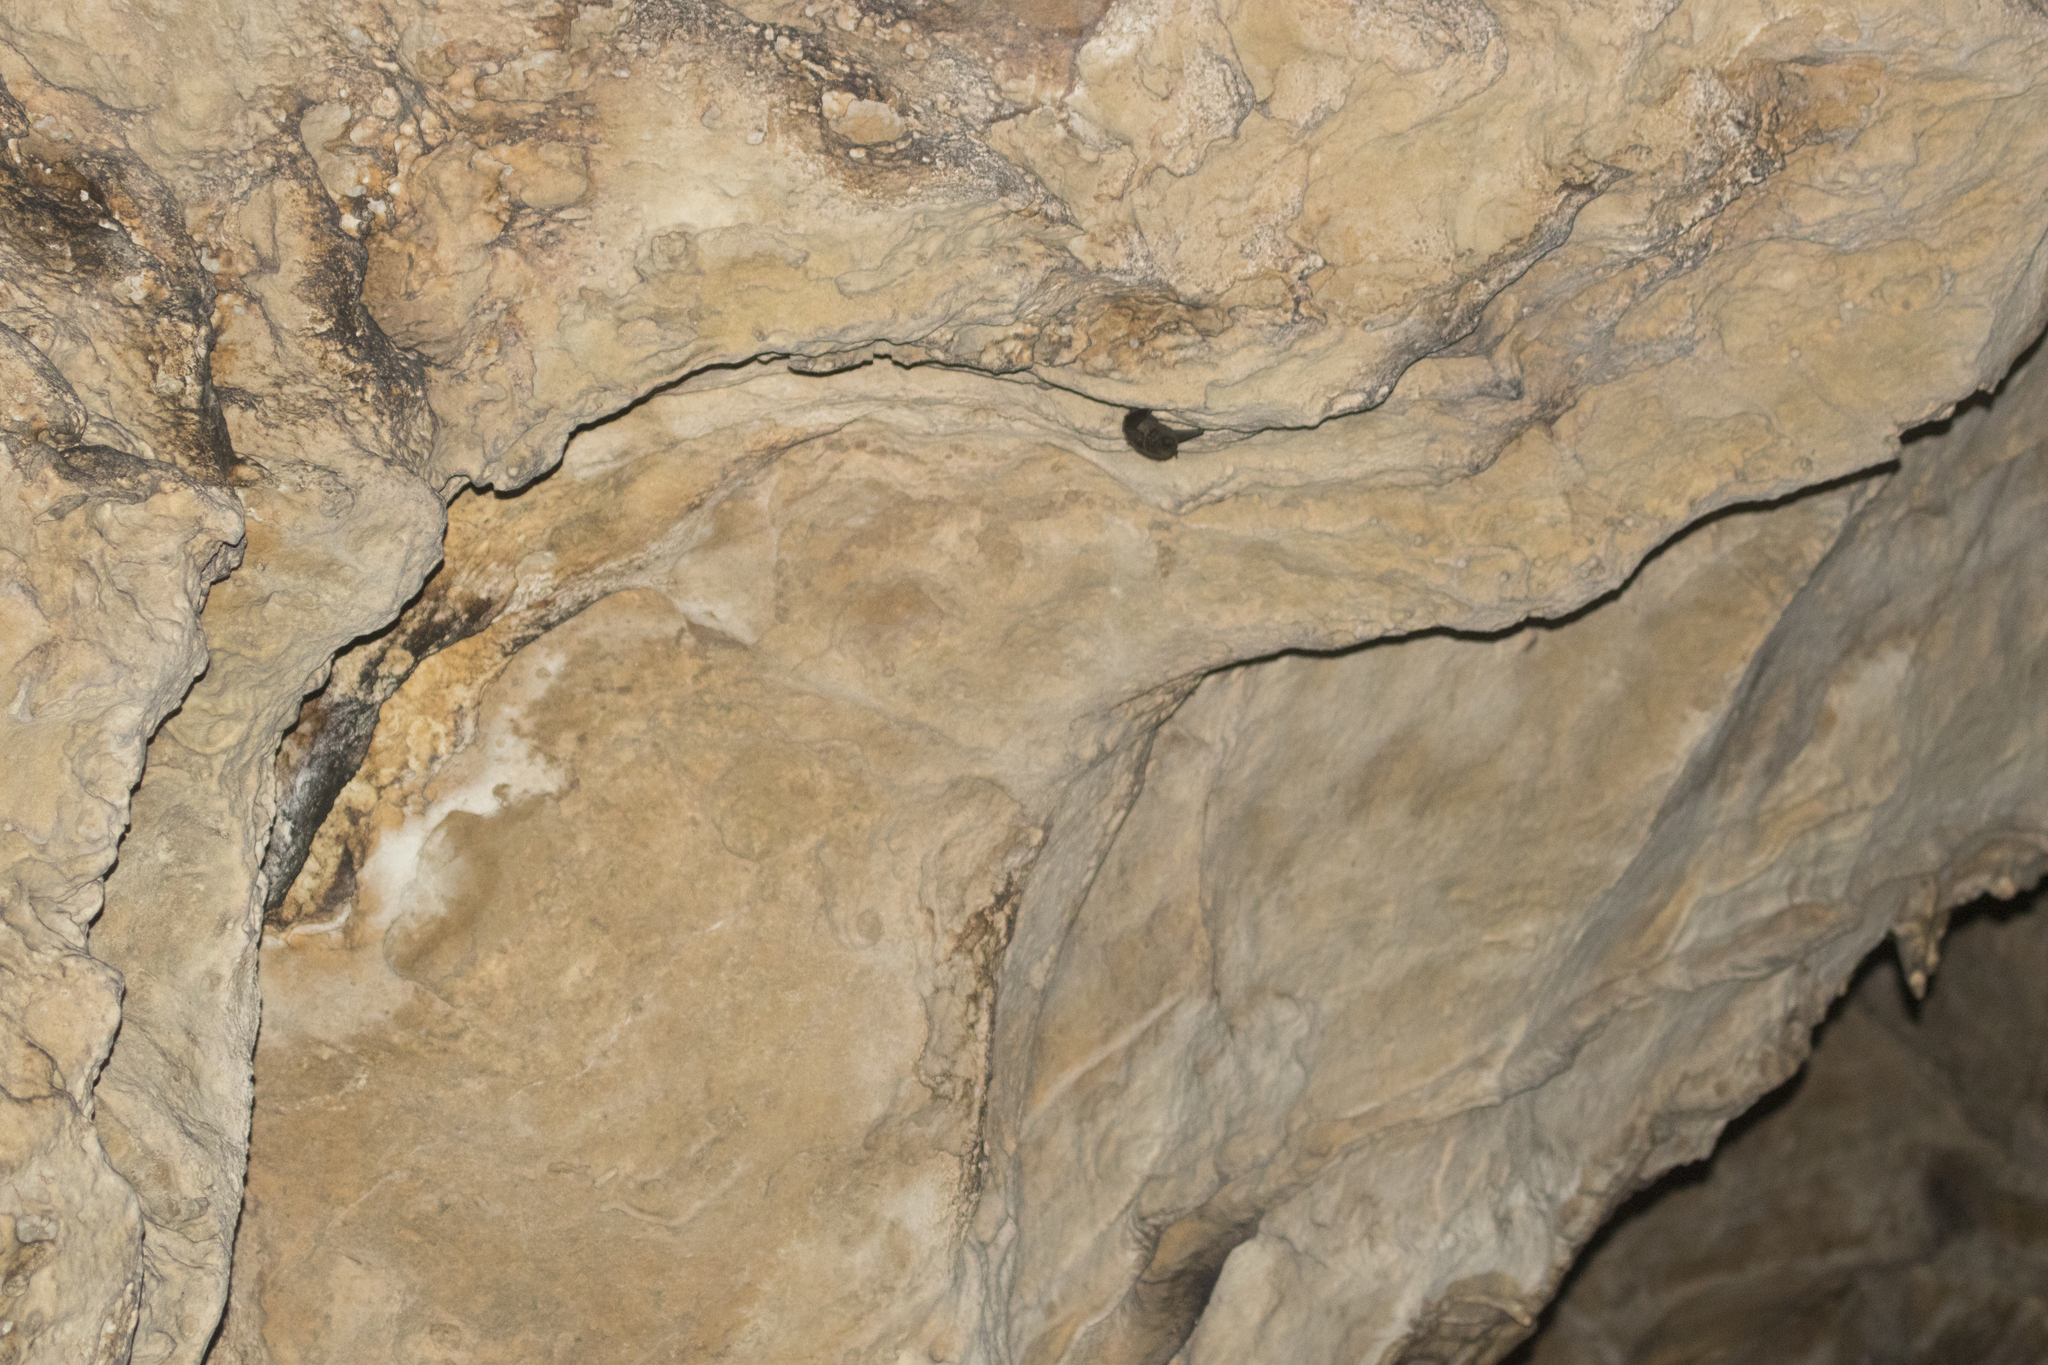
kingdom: Animalia
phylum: Chordata
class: Mammalia
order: Chiroptera
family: Vespertilionidae
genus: Eptesicus
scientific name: Eptesicus nilssonii
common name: Northern bat
